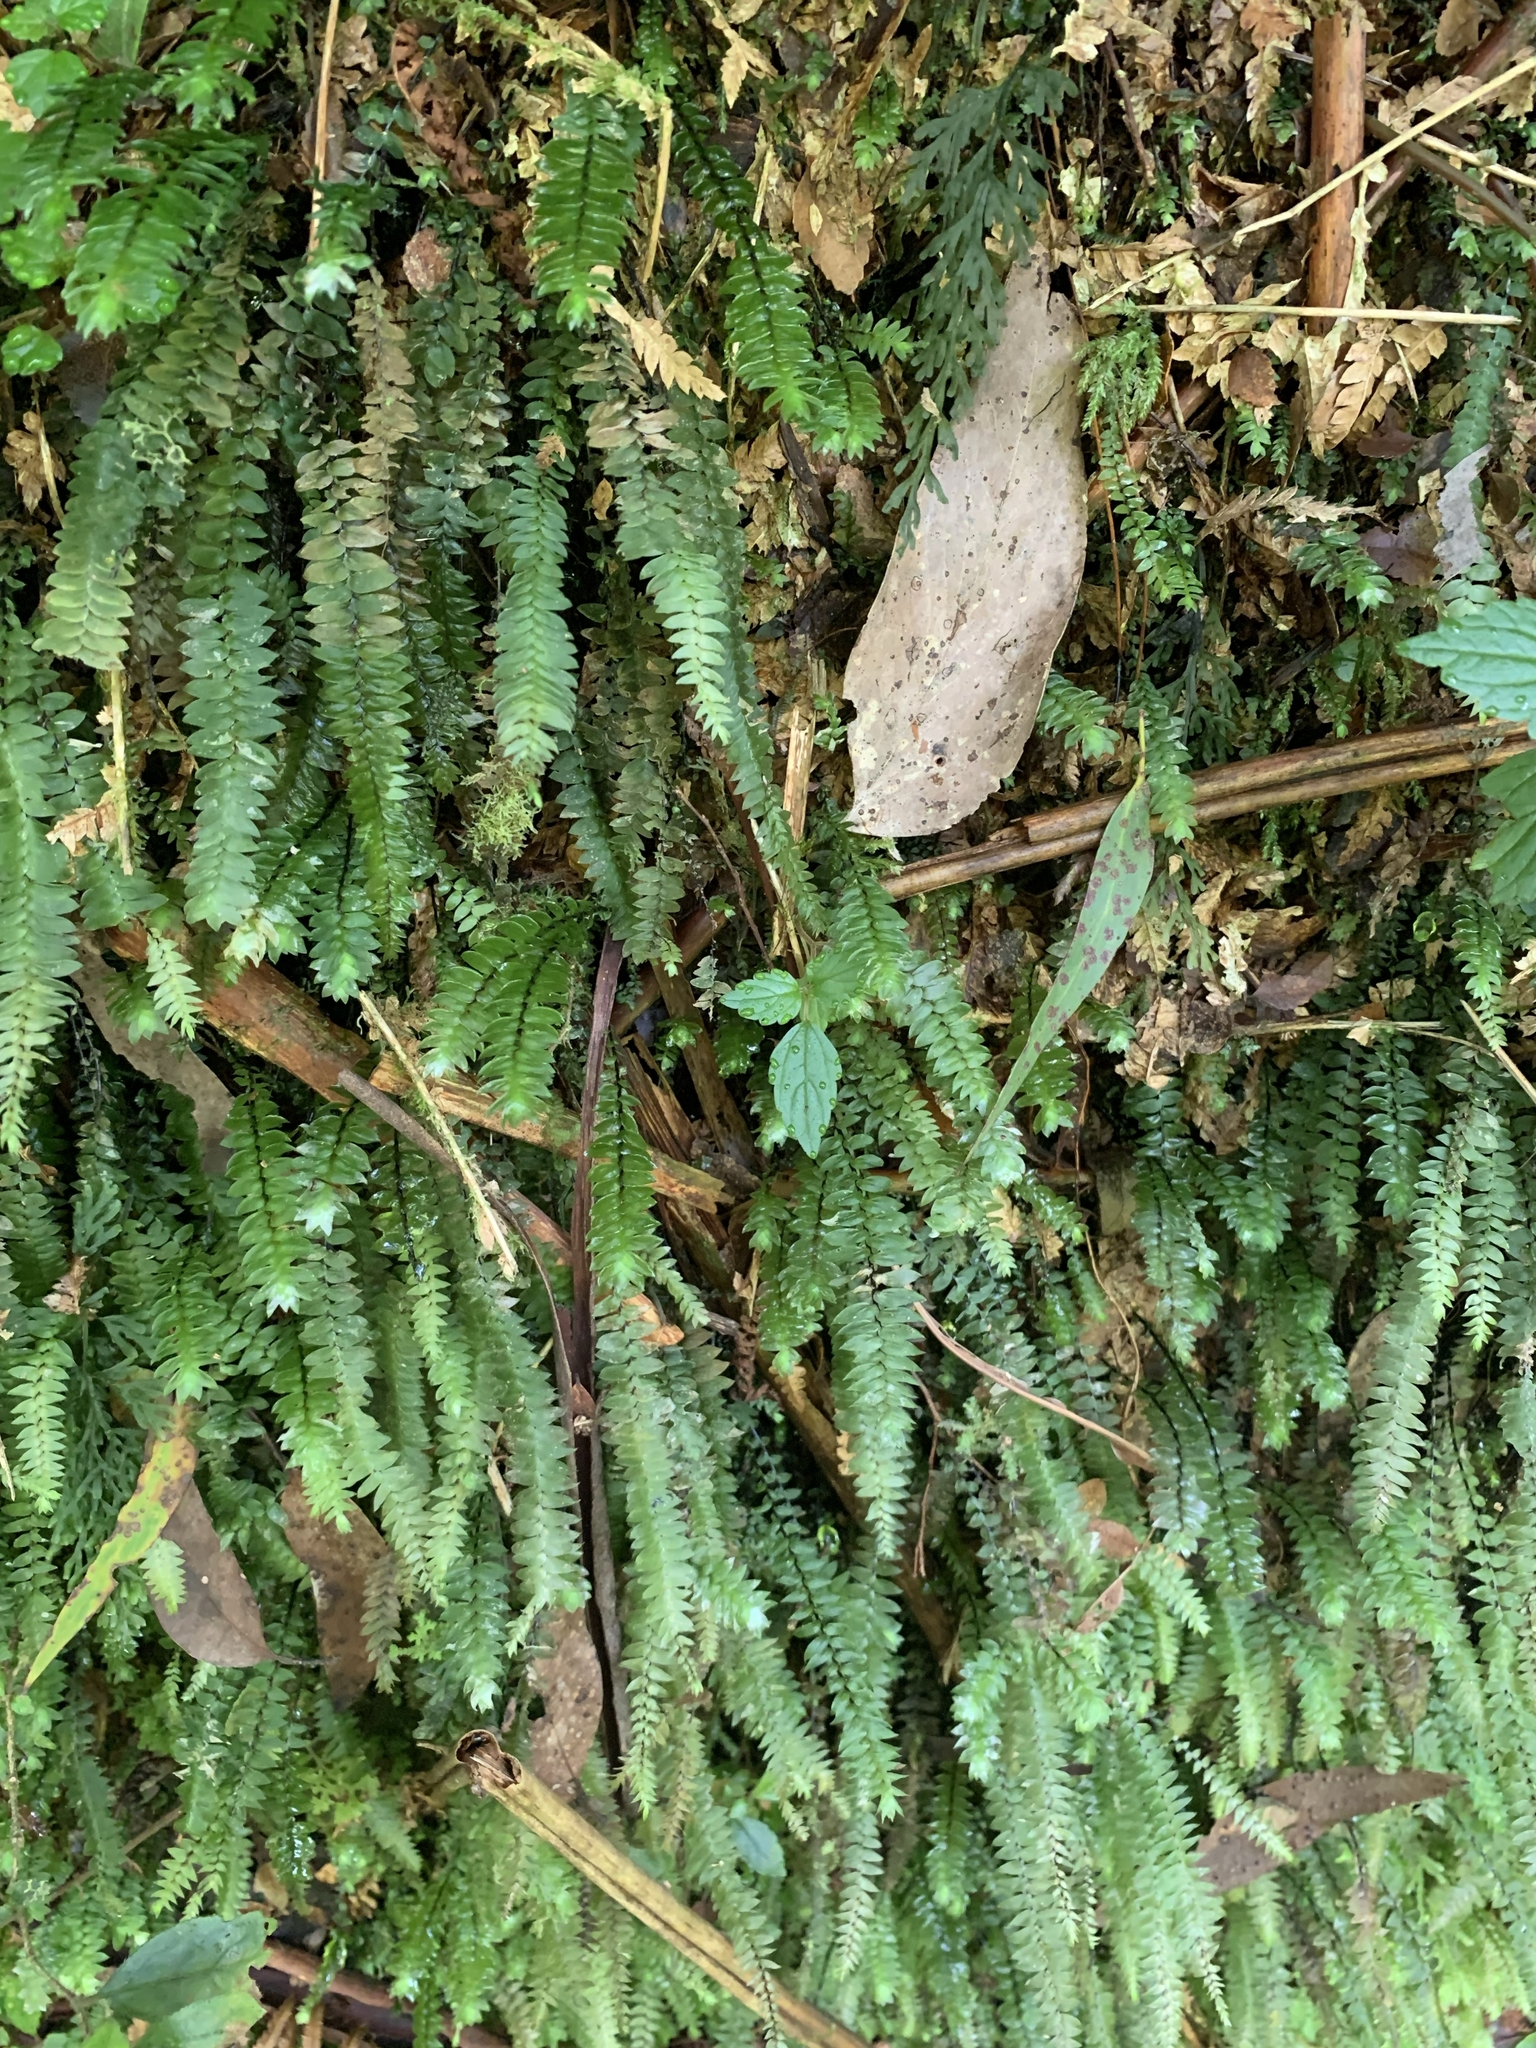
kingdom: Plantae
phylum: Bryophyta
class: Bryopsida
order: Hypopterygiales
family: Hypopterygiaceae
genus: Cyathophorum
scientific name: Cyathophorum bulbosum
